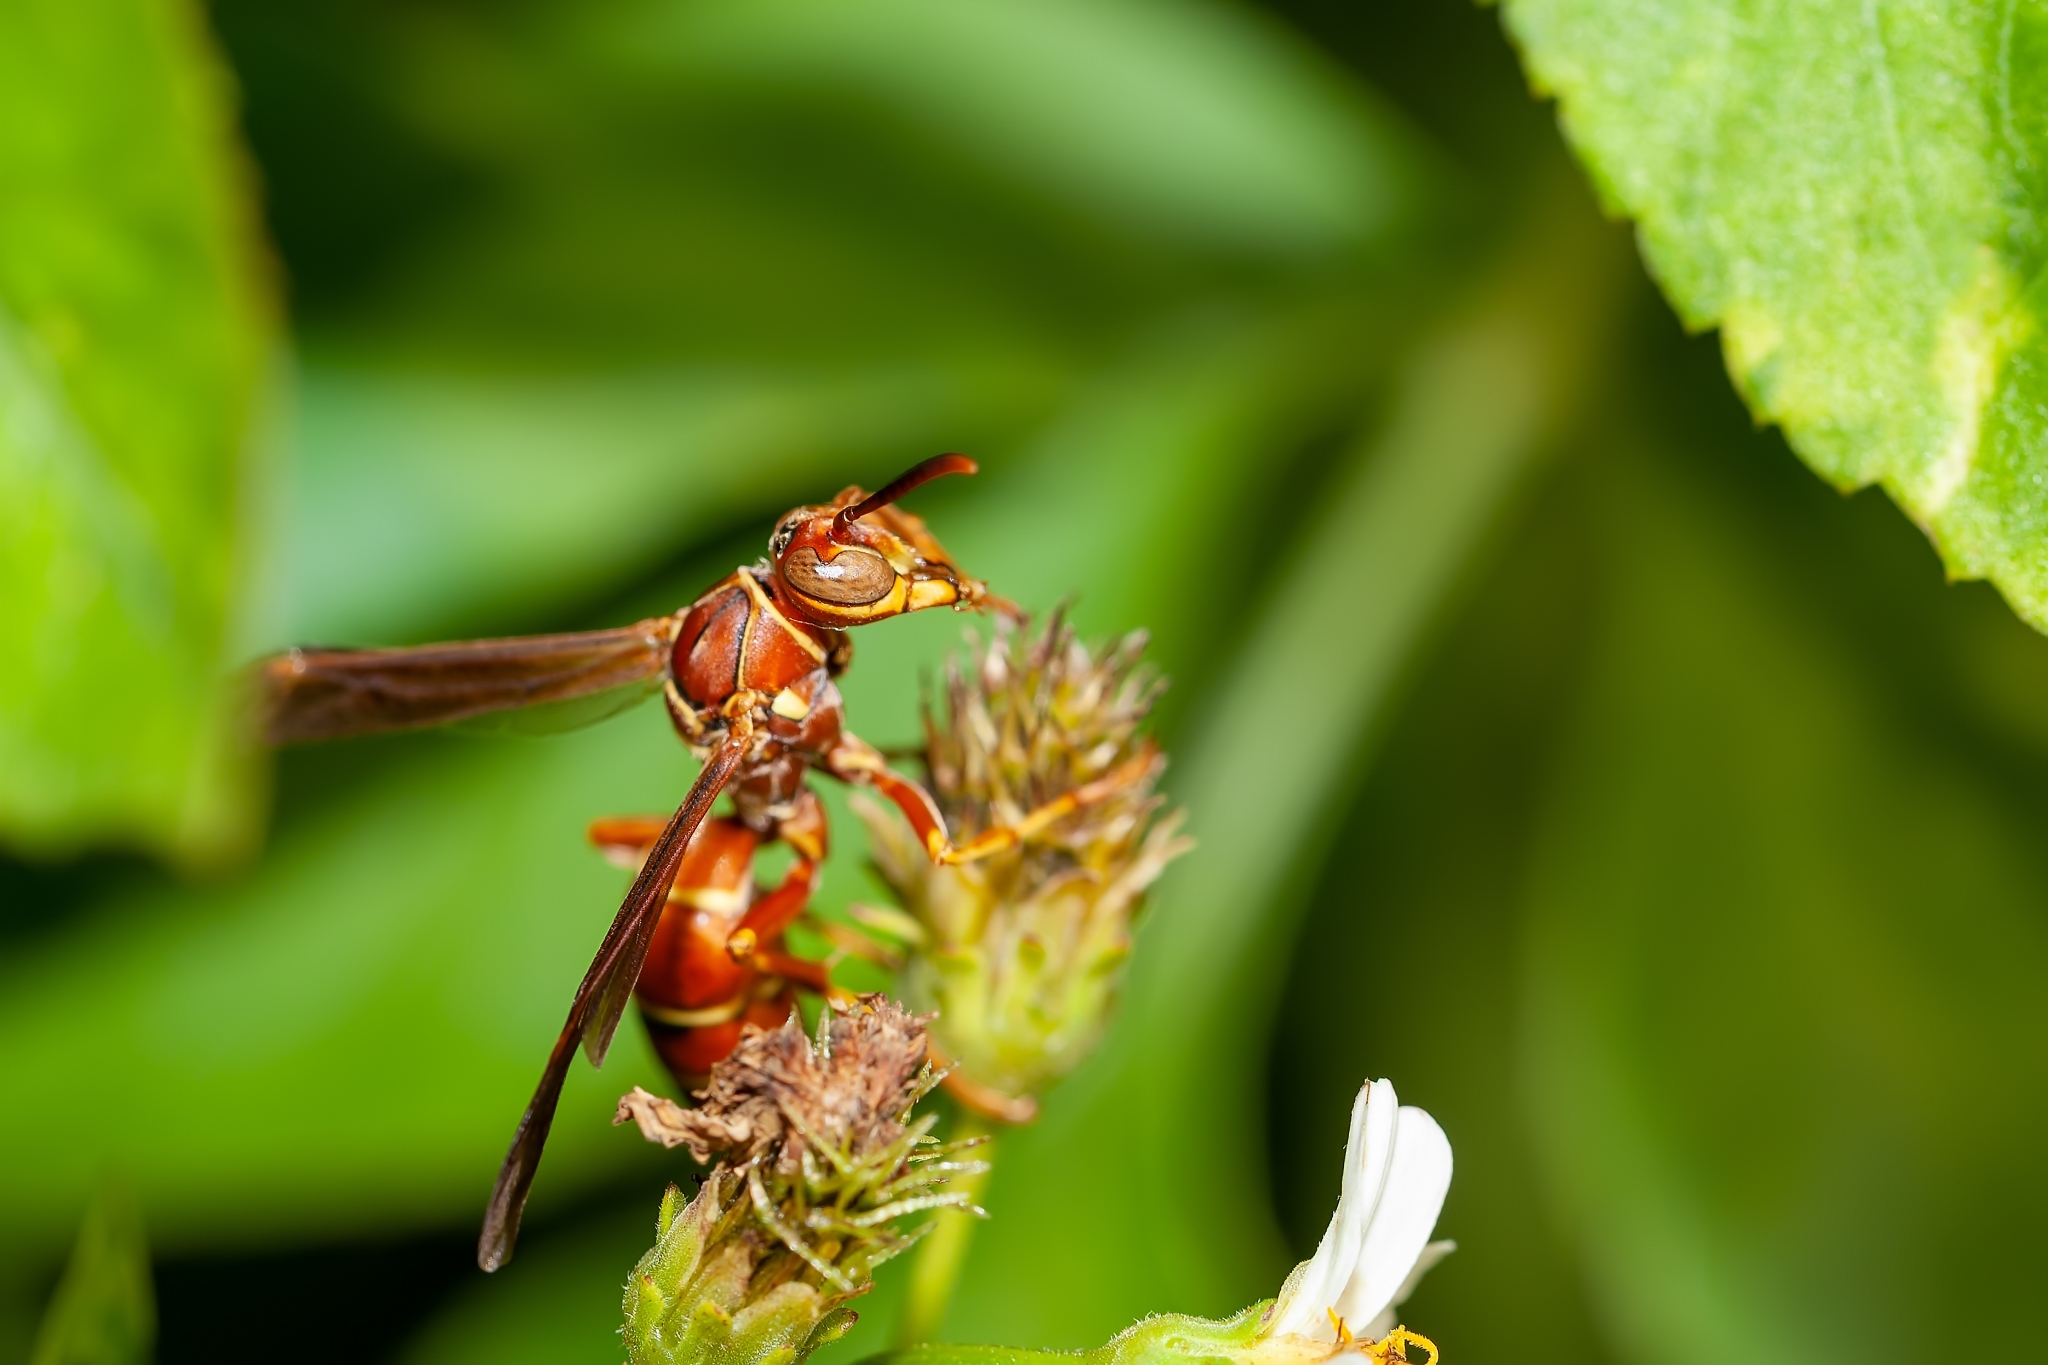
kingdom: Animalia
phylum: Arthropoda
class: Insecta
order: Hymenoptera
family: Eumenidae
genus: Polistes
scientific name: Polistes bellicosus
